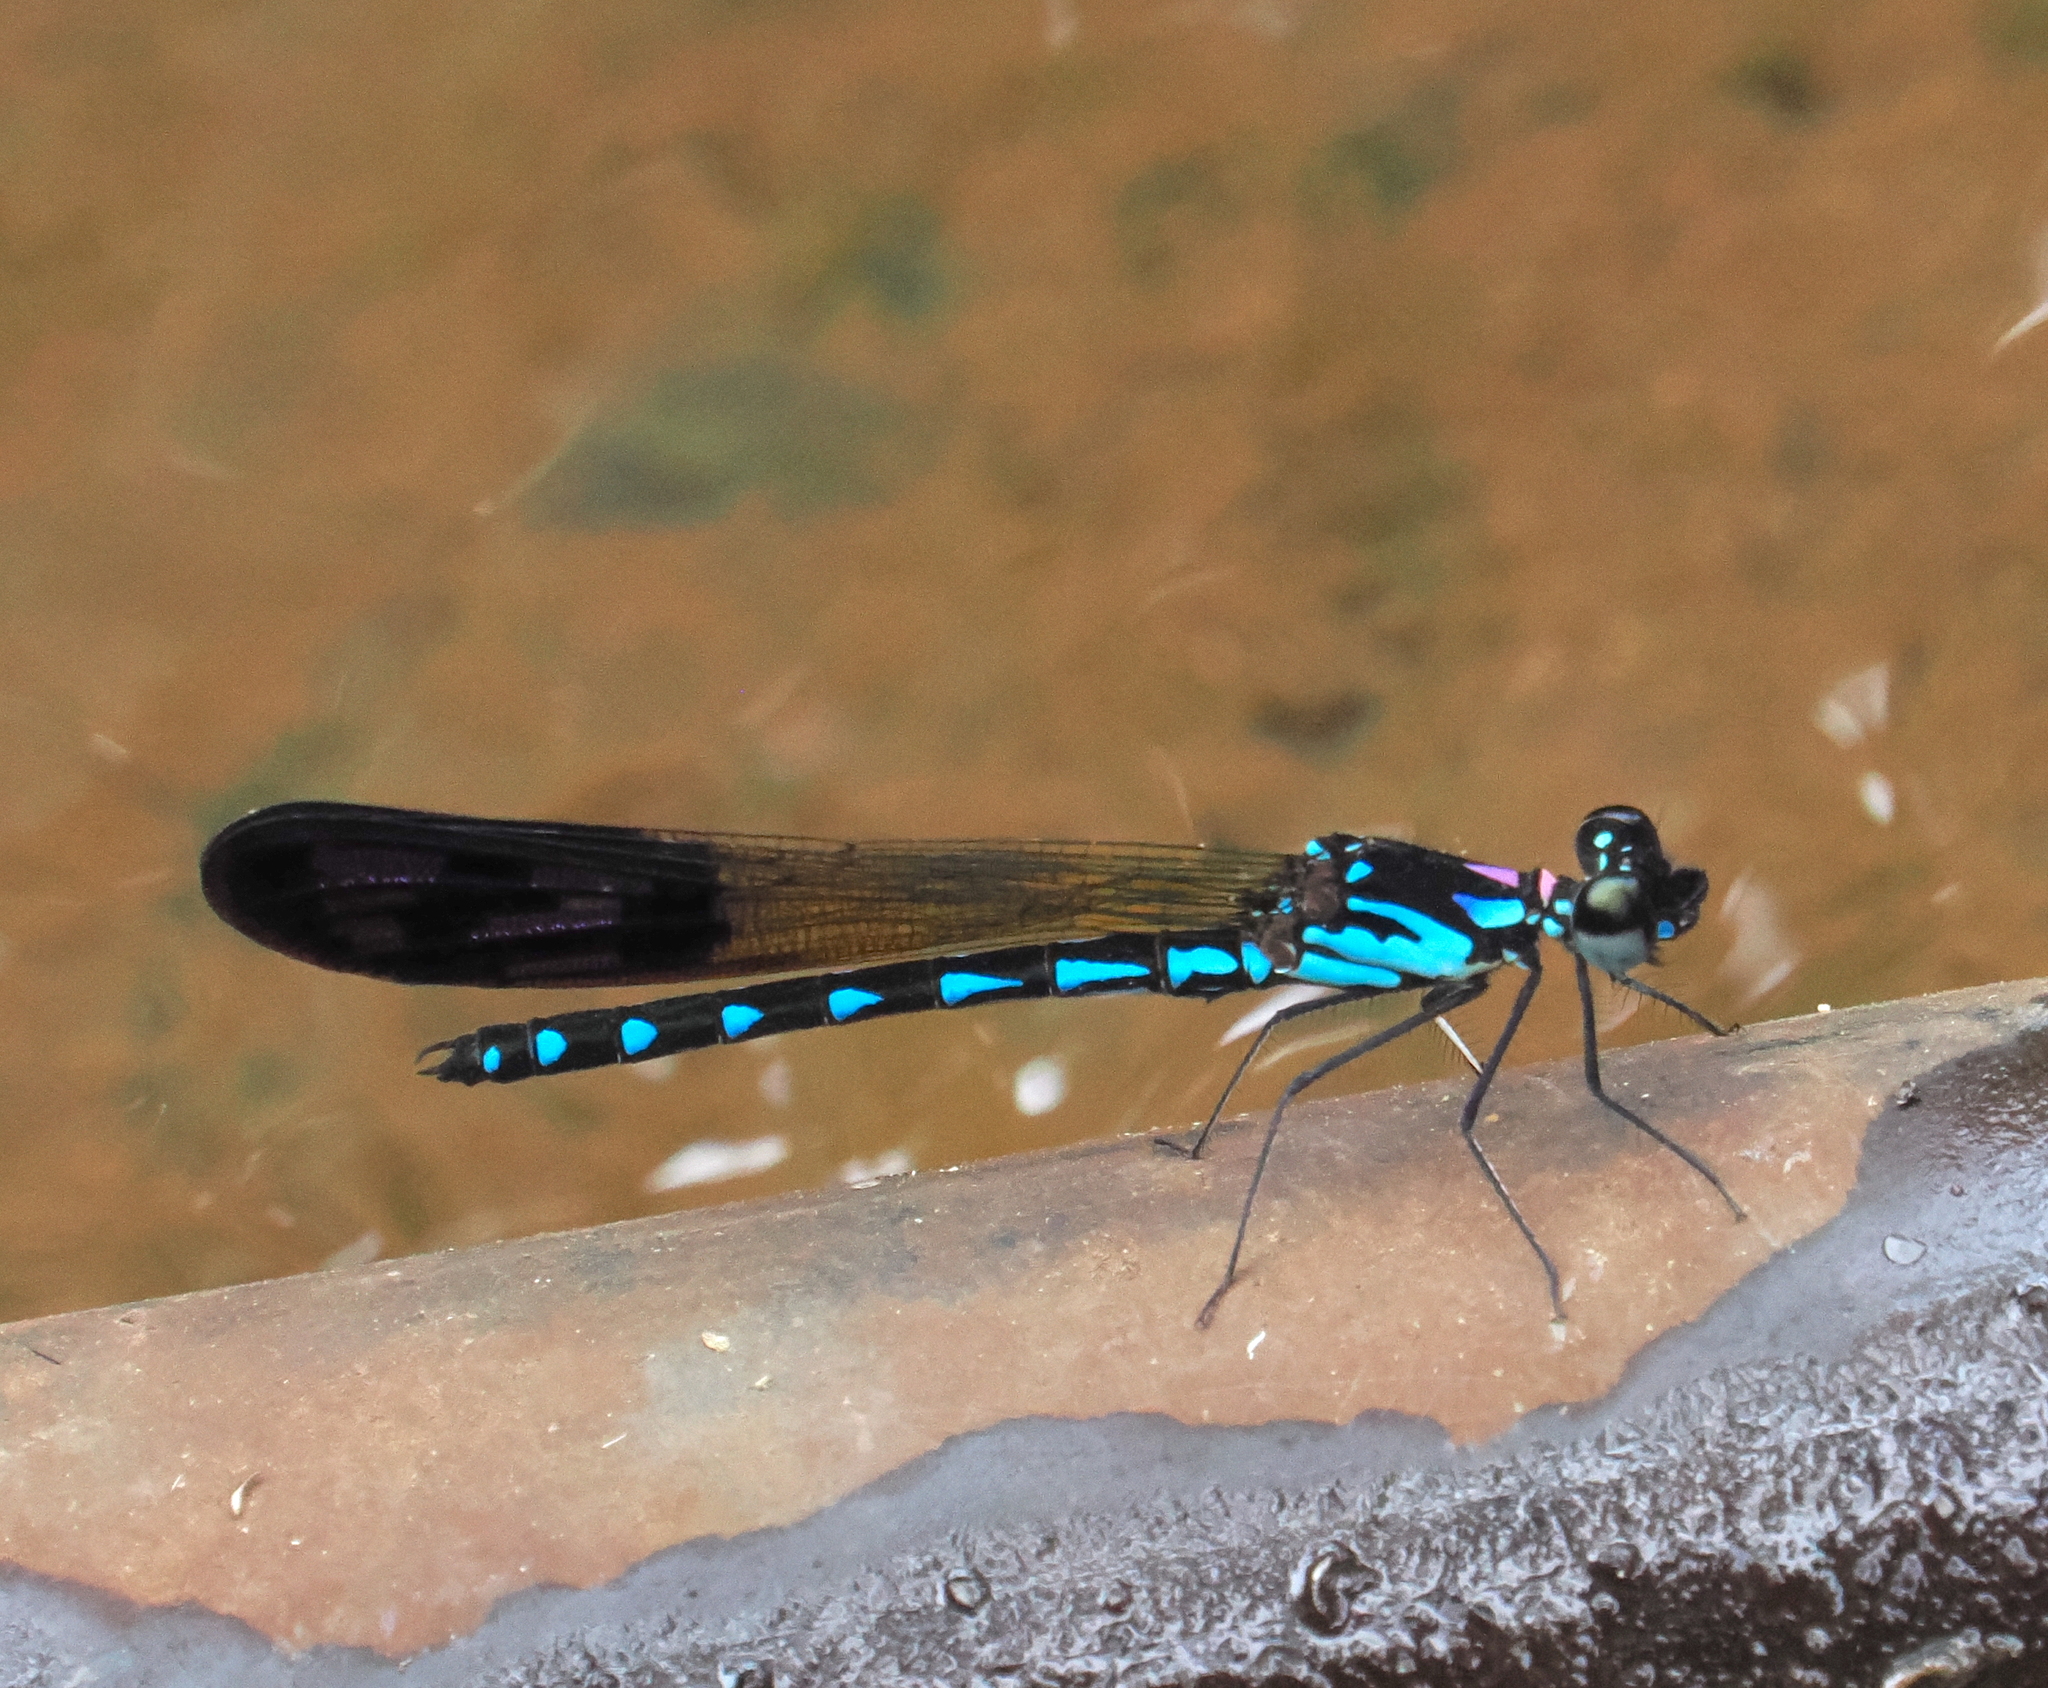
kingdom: Animalia
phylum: Arthropoda
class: Insecta
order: Odonata
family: Chlorocyphidae
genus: Heliocypha
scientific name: Heliocypha perforata
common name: Common blue jewel
